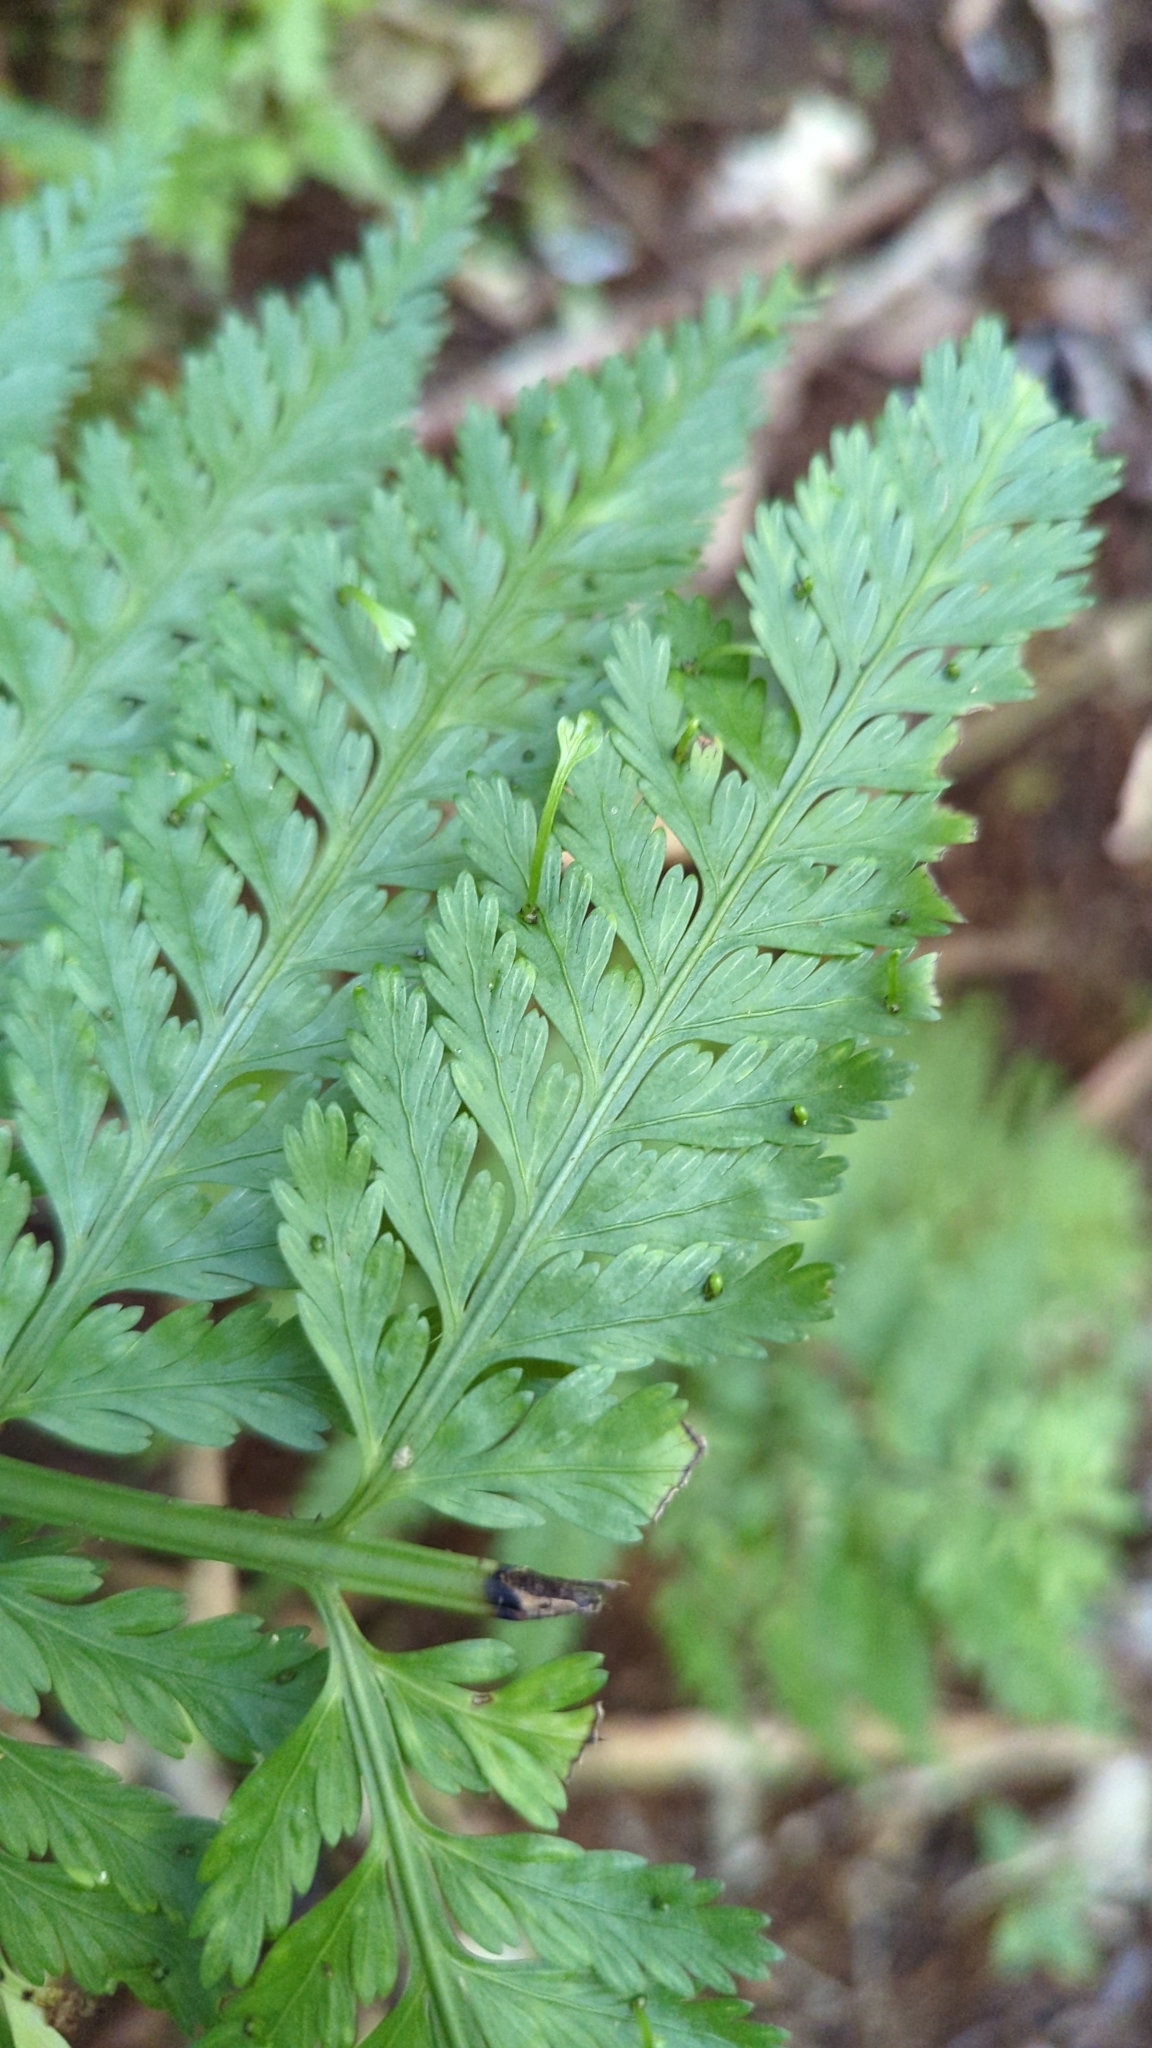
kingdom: Plantae
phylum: Tracheophyta
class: Polypodiopsida
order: Polypodiales
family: Aspleniaceae
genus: Asplenium
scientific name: Asplenium bulbiferum
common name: Mother fern
